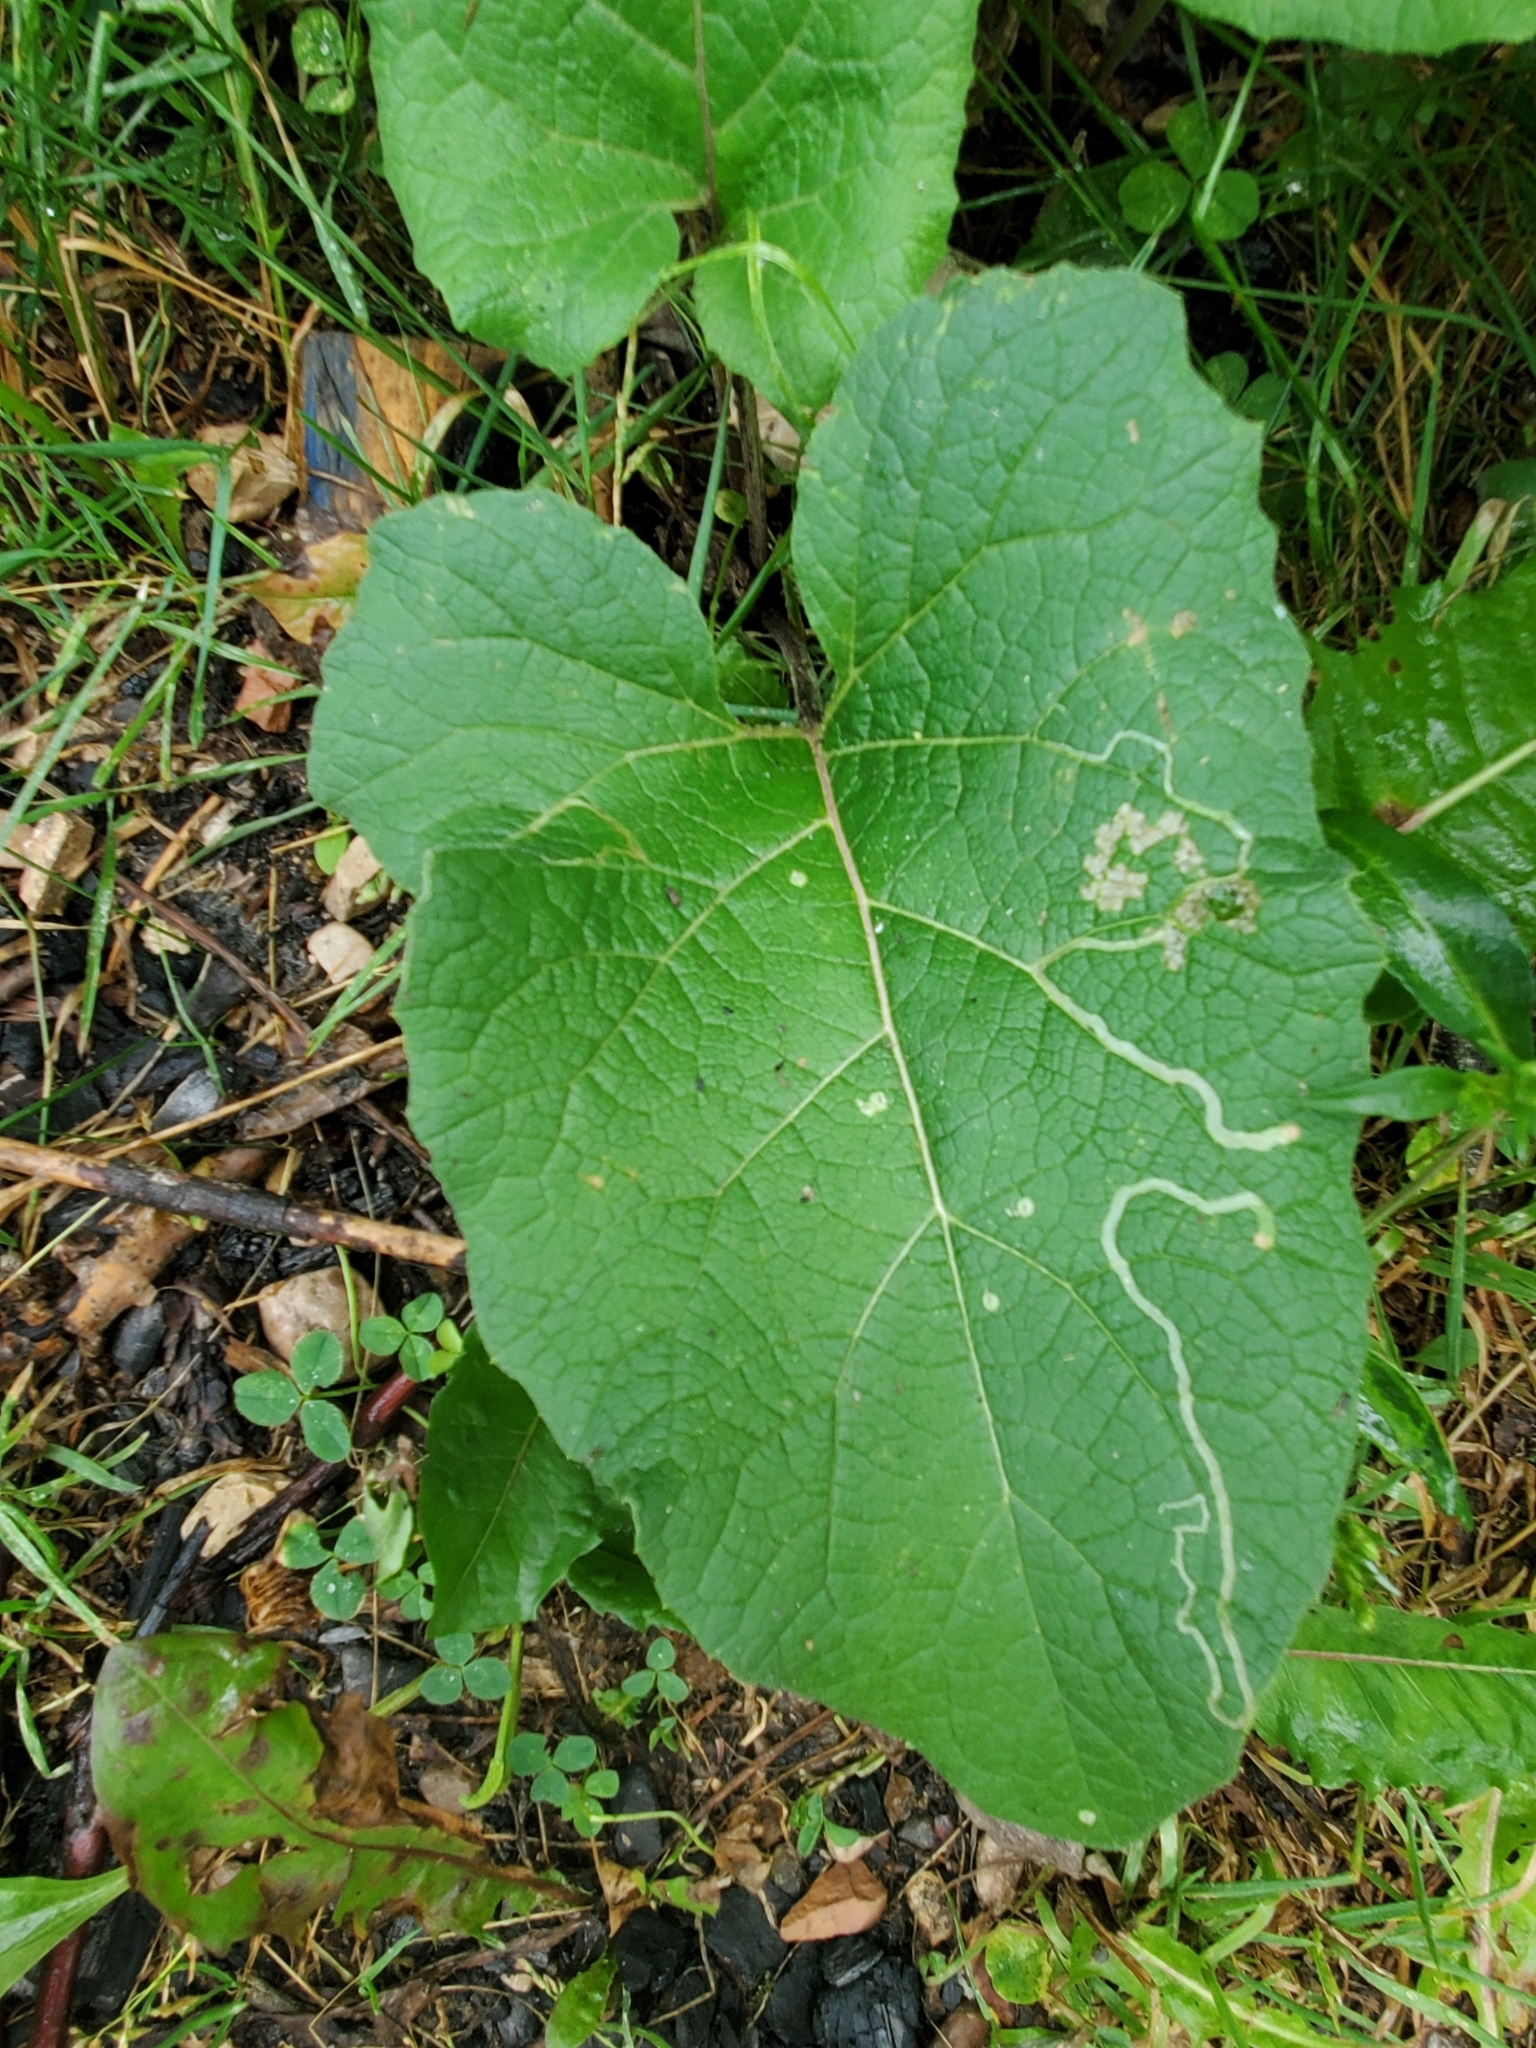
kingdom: Animalia
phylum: Arthropoda
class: Insecta
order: Diptera
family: Agromyzidae
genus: Liriomyza
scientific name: Liriomyza arctii
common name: Burdock leafminer
